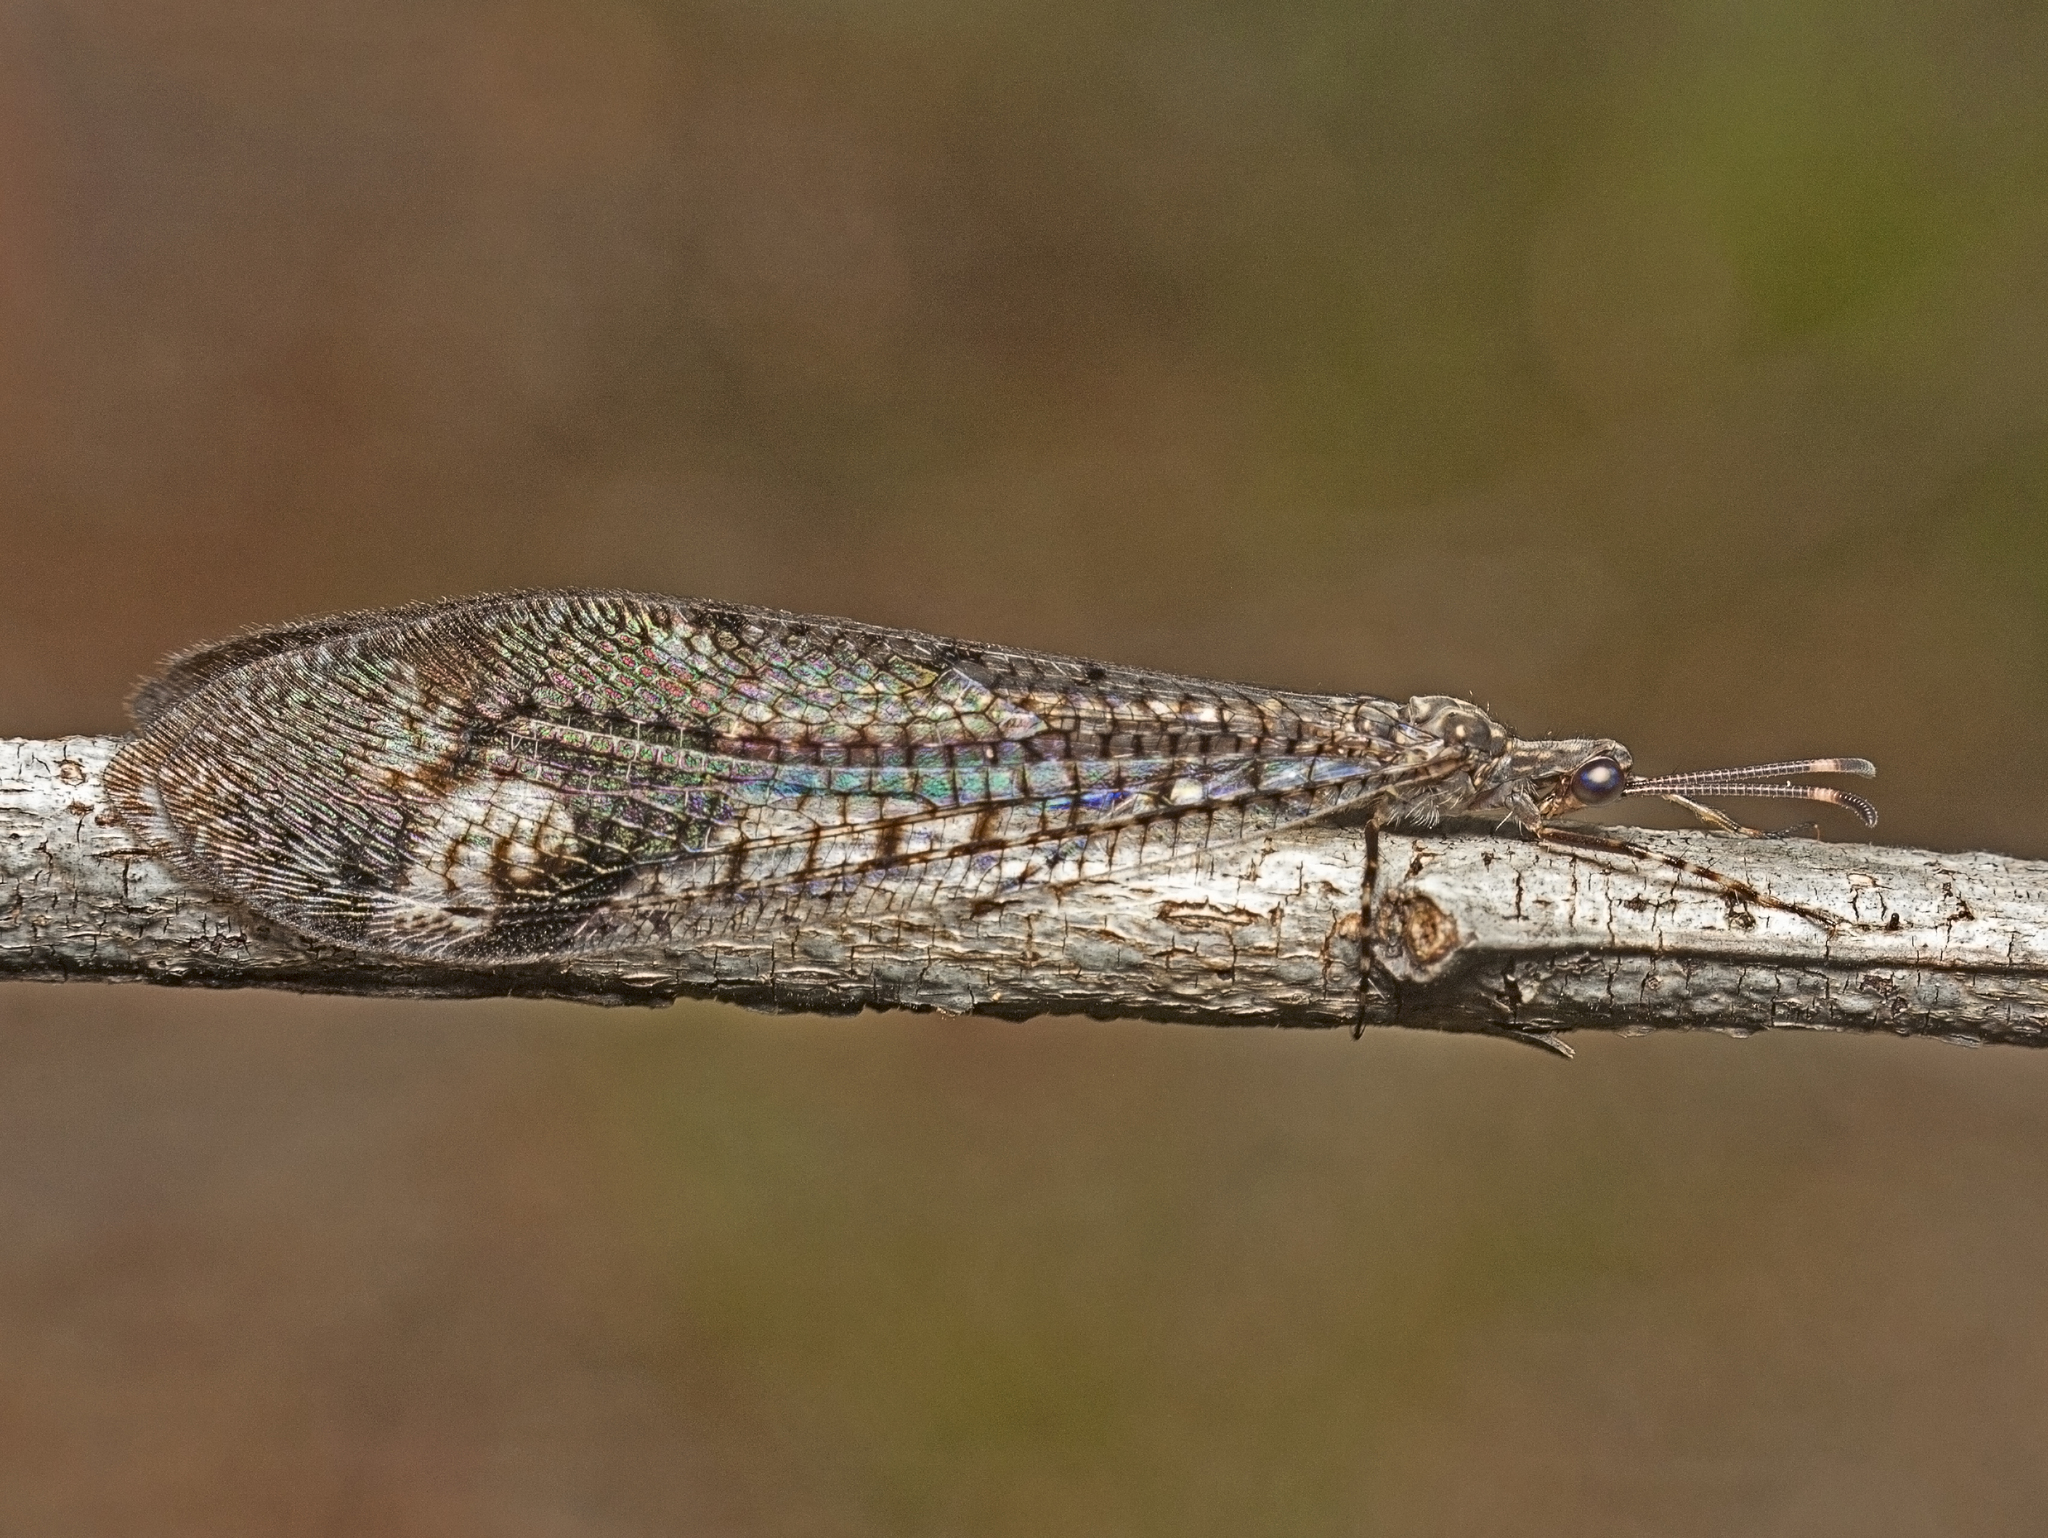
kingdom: Animalia
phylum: Arthropoda
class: Insecta
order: Neuroptera
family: Myrmeleontidae
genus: Glenoleon
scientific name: Glenoleon pulchellus
